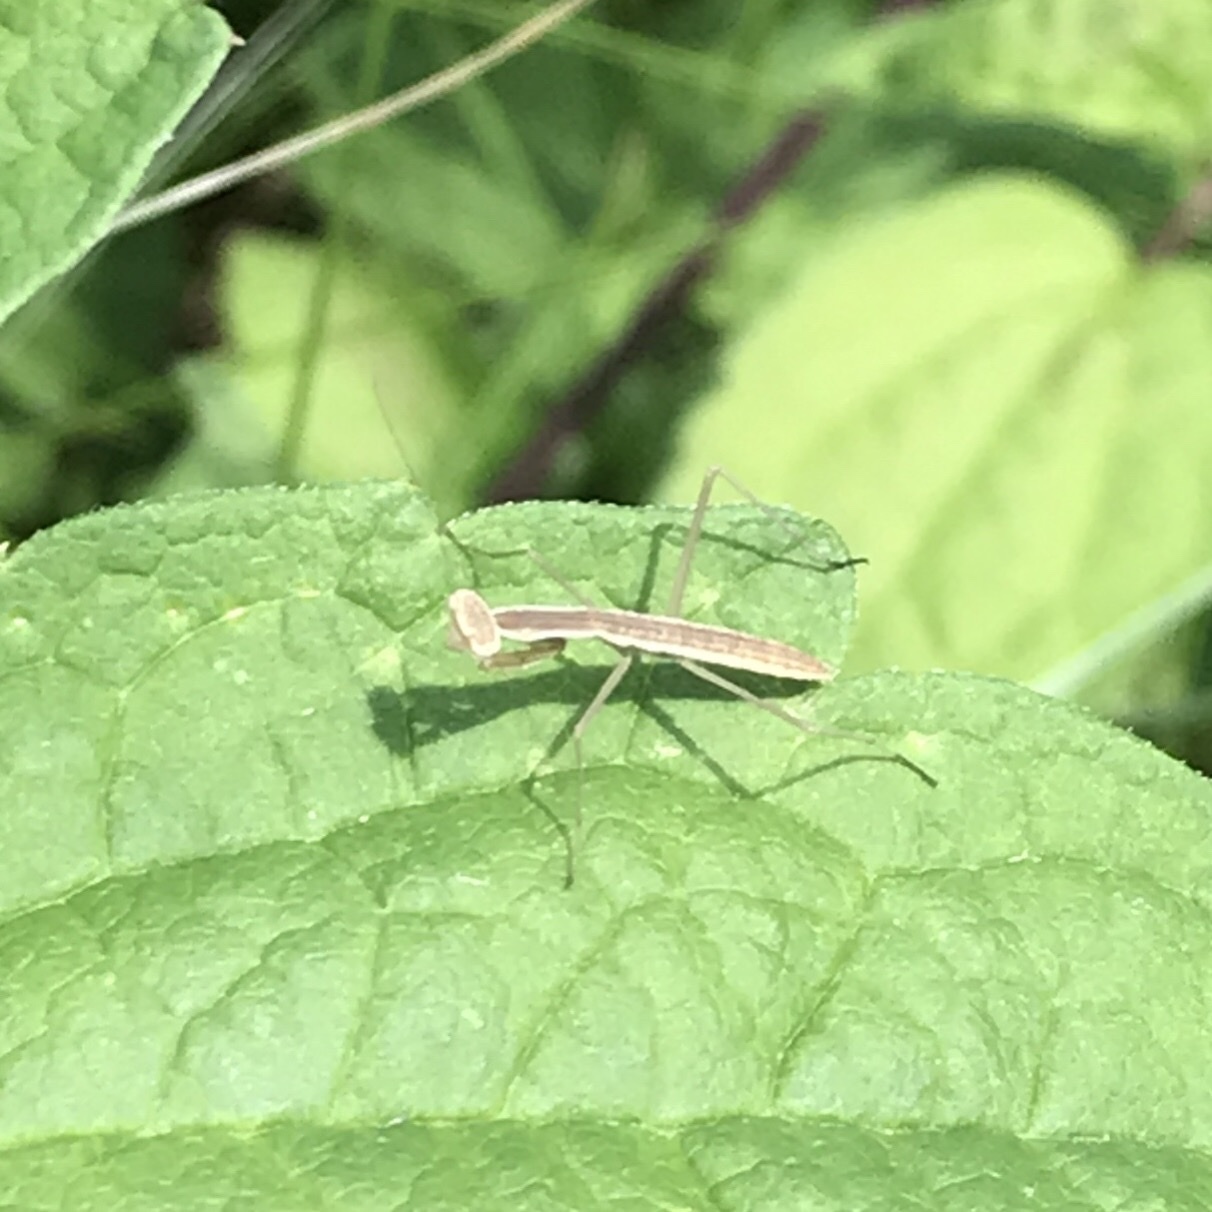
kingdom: Animalia
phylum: Arthropoda
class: Insecta
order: Mantodea
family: Mantidae
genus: Tenodera
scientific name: Tenodera sinensis
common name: Chinese mantis
